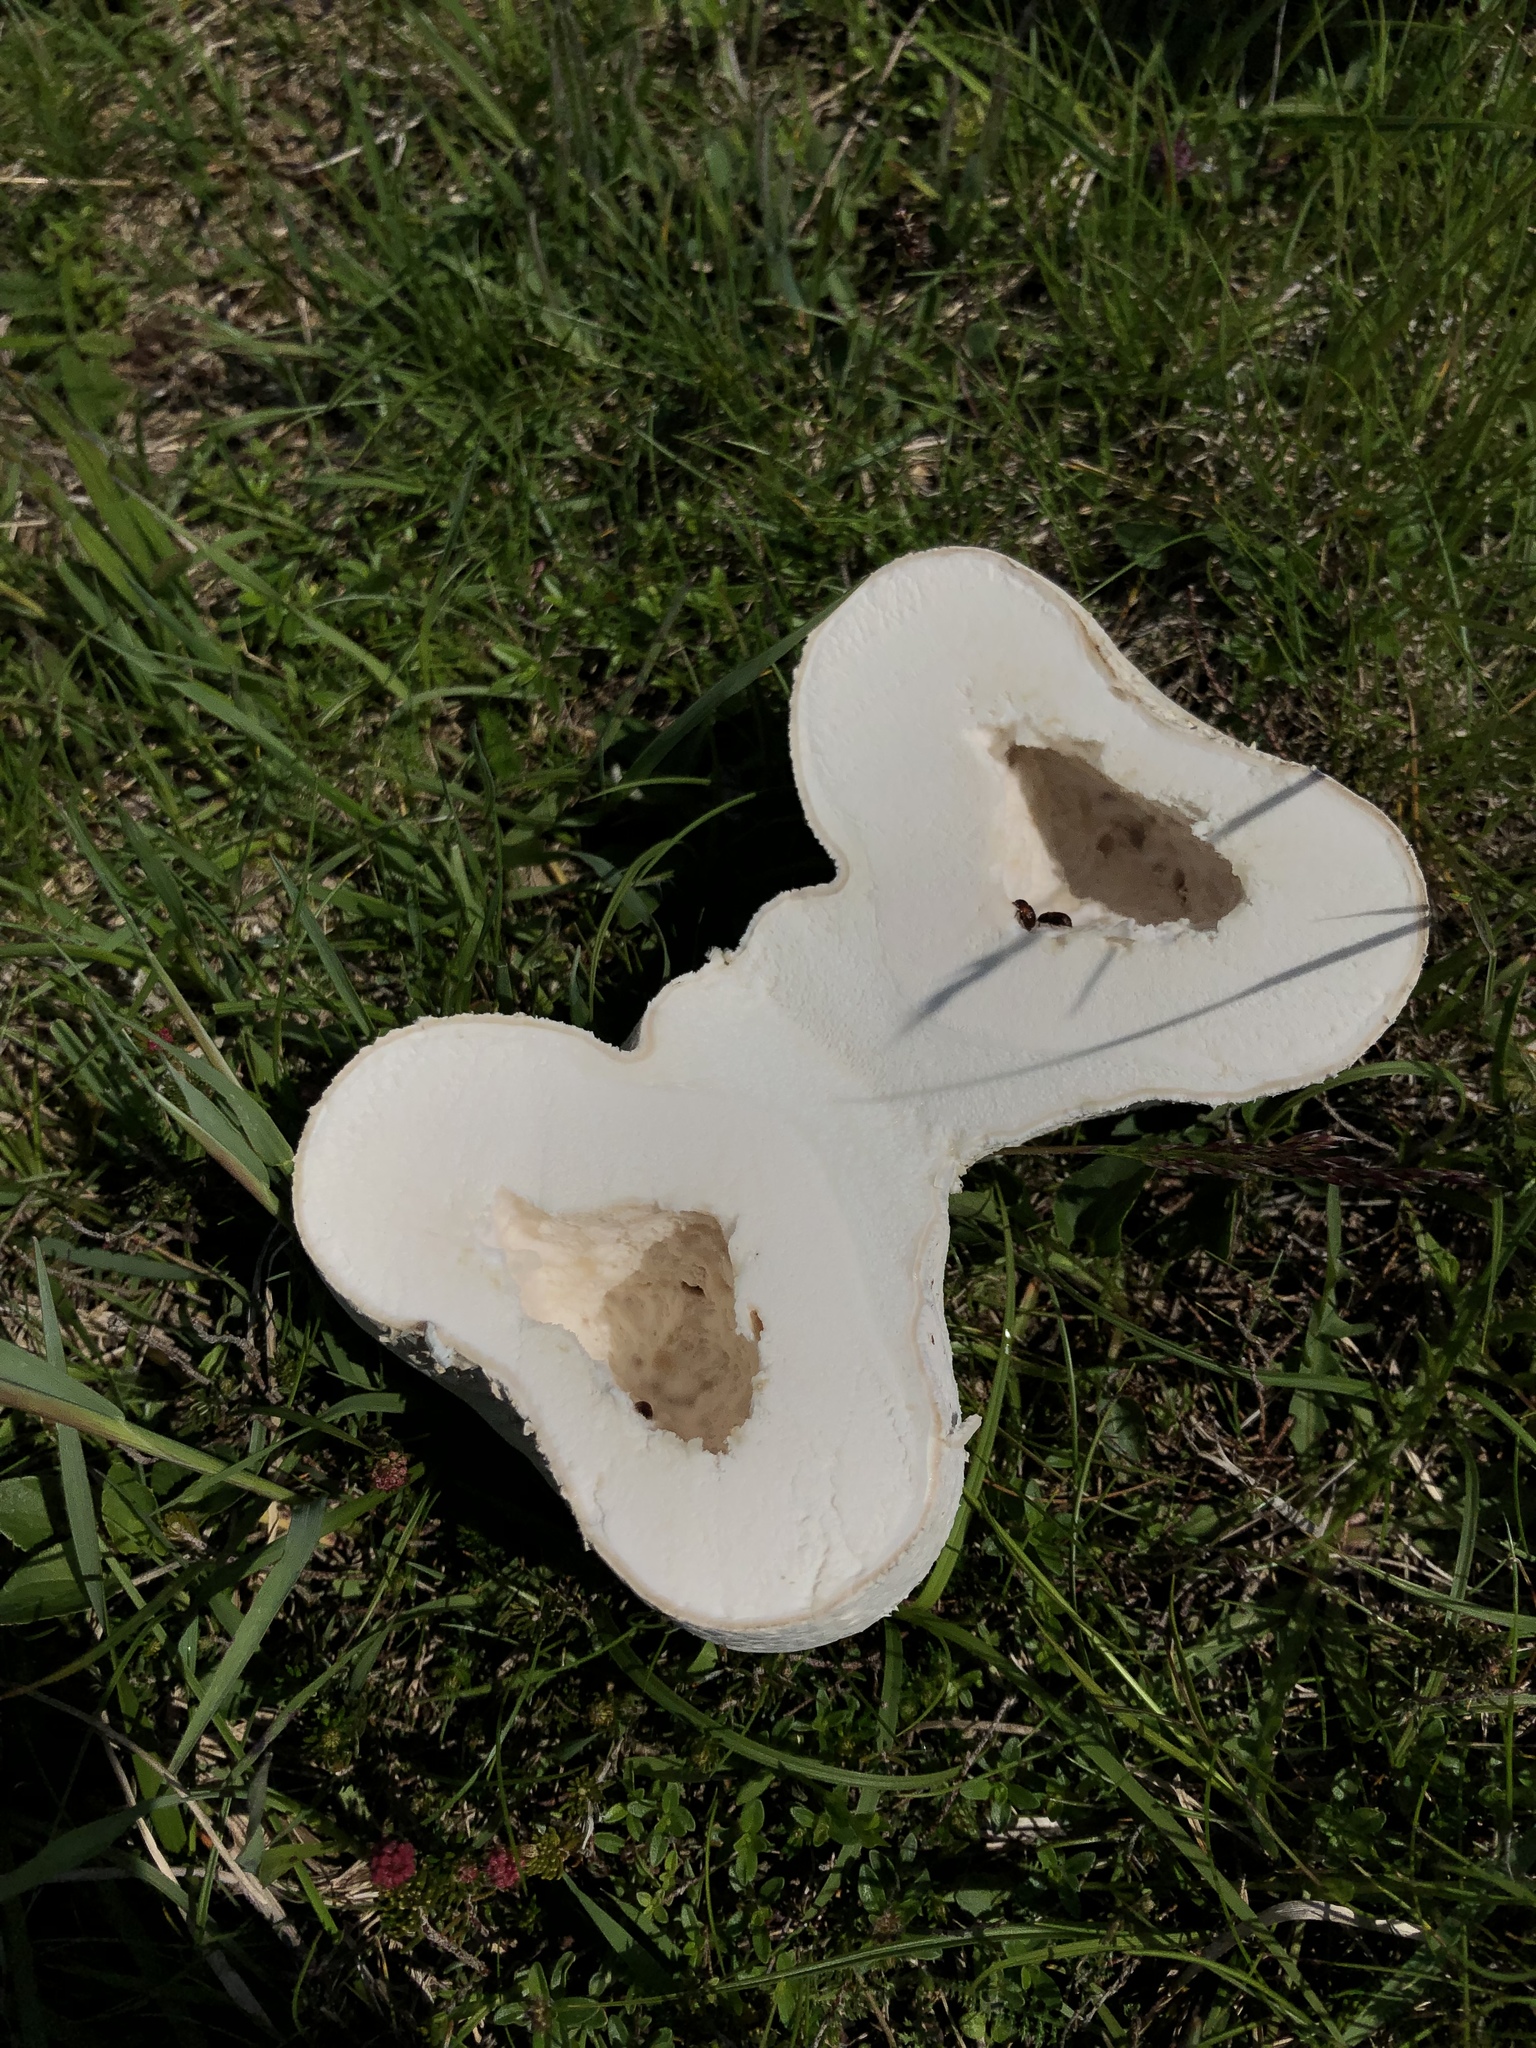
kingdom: Fungi
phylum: Basidiomycota
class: Agaricomycetes
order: Agaricales
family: Lycoperdaceae
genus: Calvatia
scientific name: Calvatia gigantea
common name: Giant puffball
